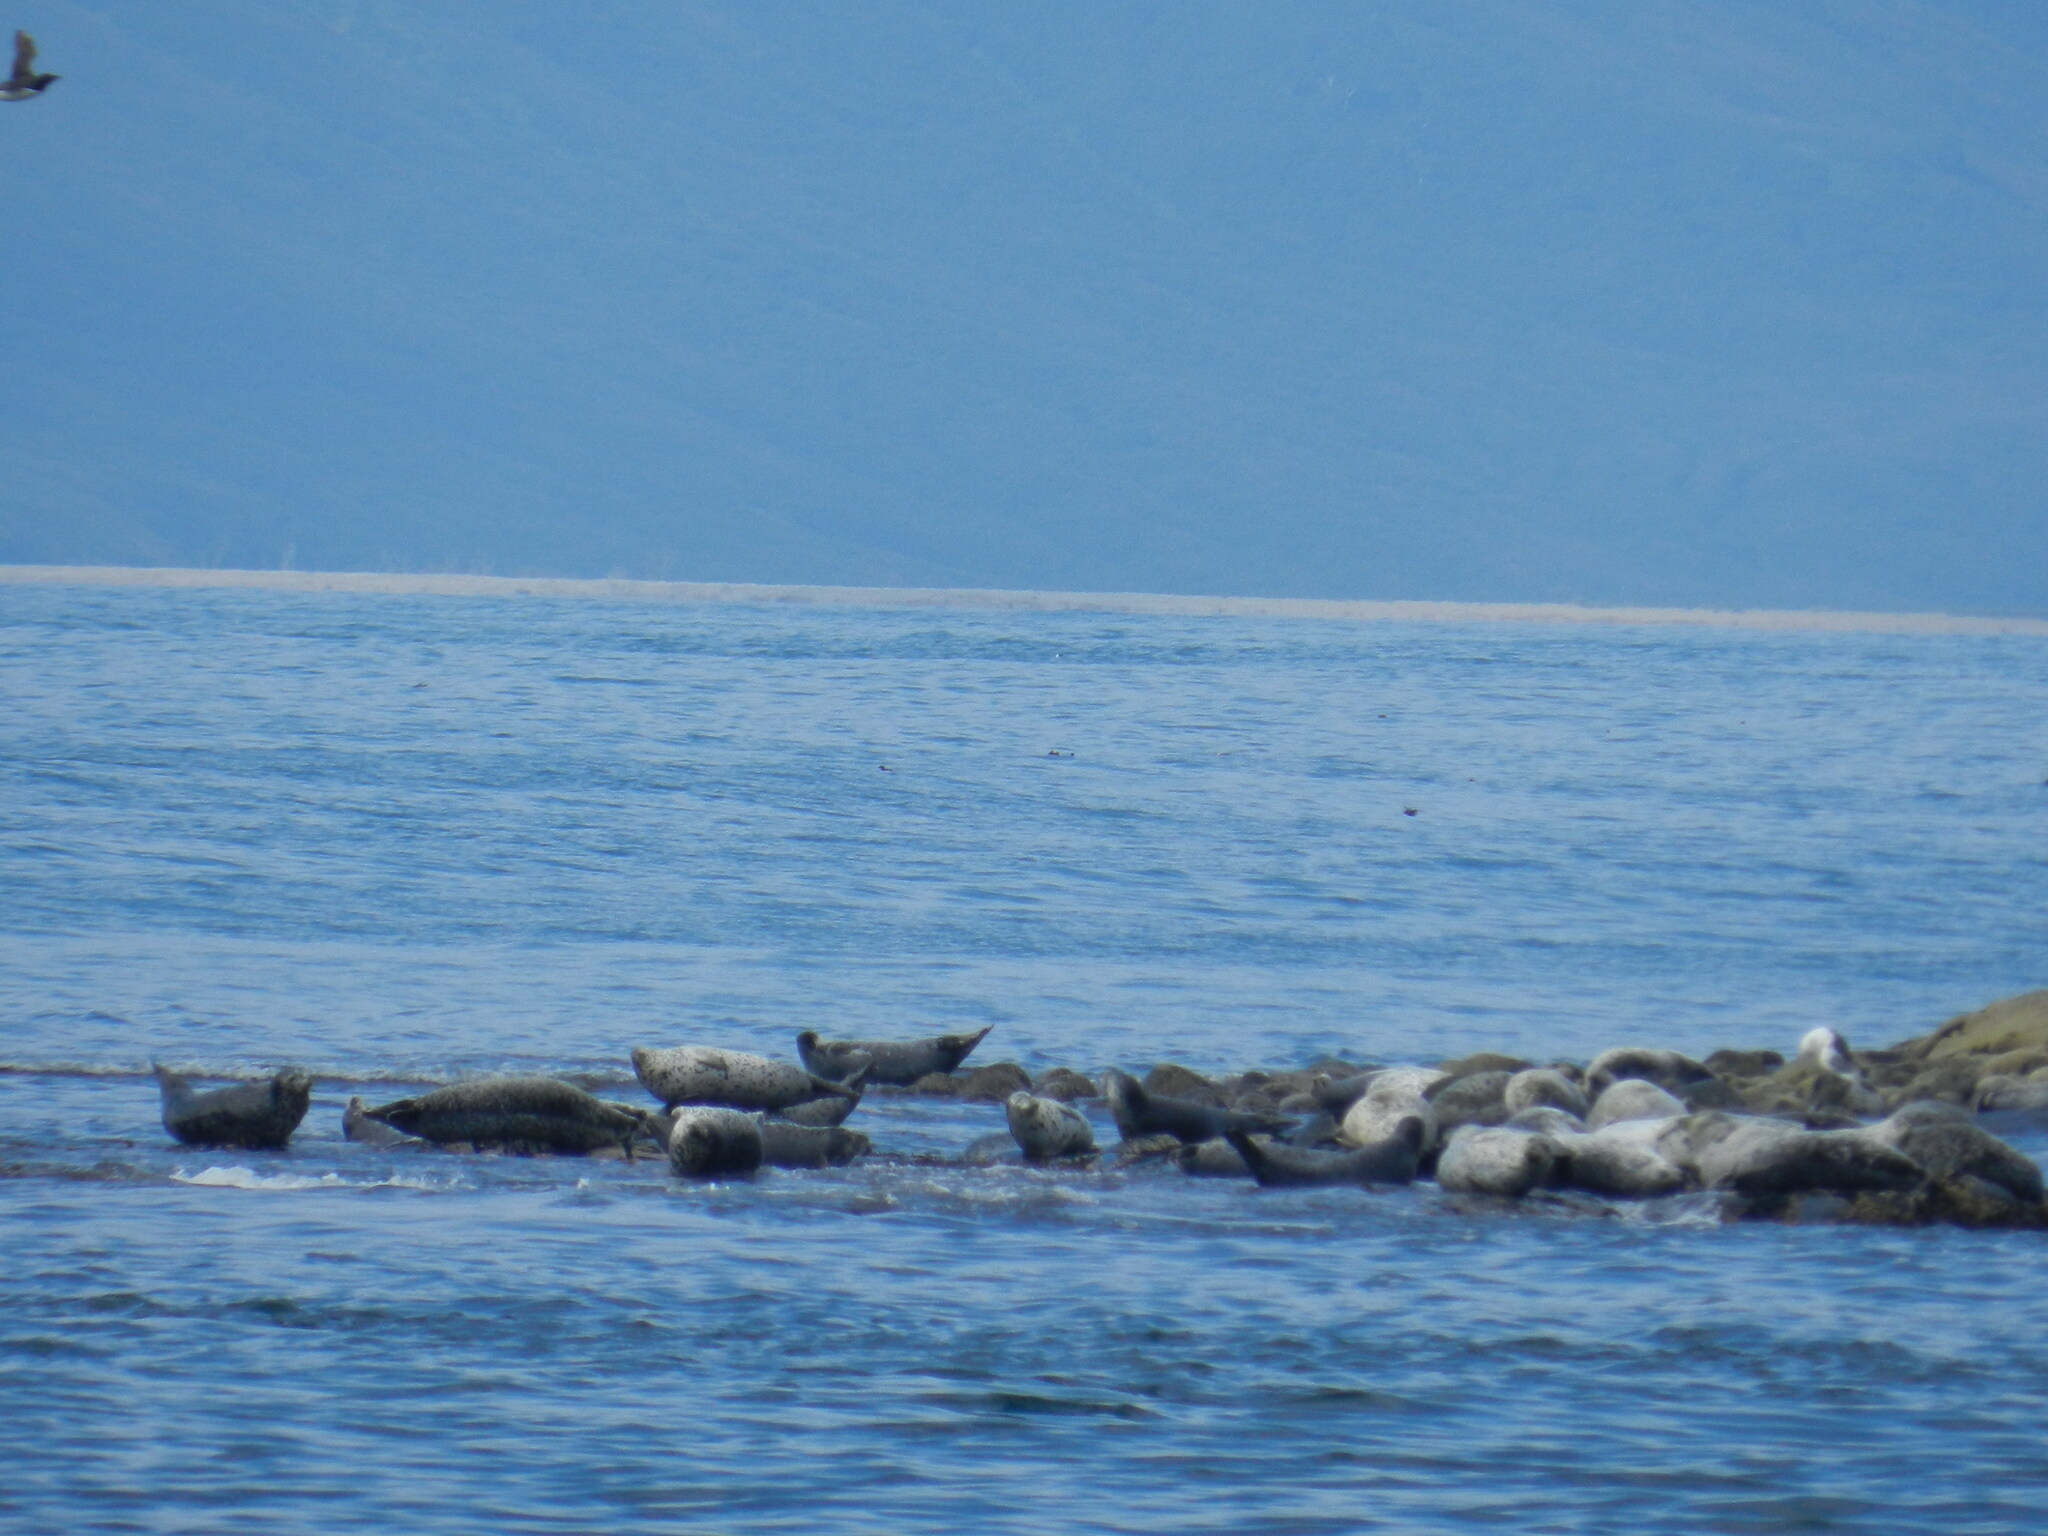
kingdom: Animalia
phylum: Chordata
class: Mammalia
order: Carnivora
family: Phocidae
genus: Phoca
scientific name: Phoca vitulina
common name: Harbor seal
